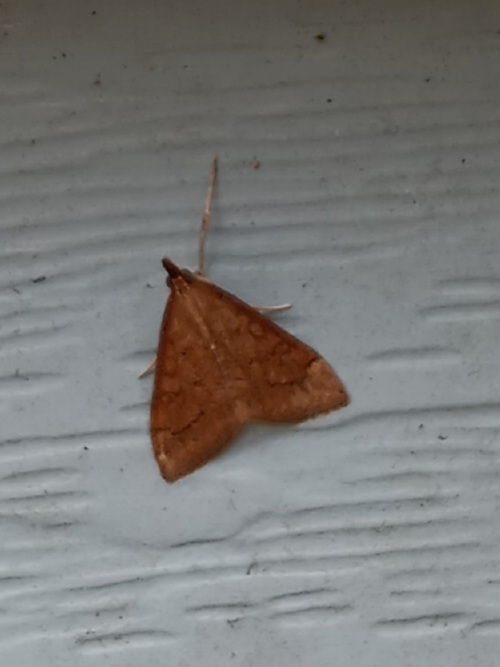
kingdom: Animalia
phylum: Arthropoda
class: Insecta
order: Lepidoptera
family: Crambidae
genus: Udea
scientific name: Udea rubigalis
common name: Celery leaftier moth
